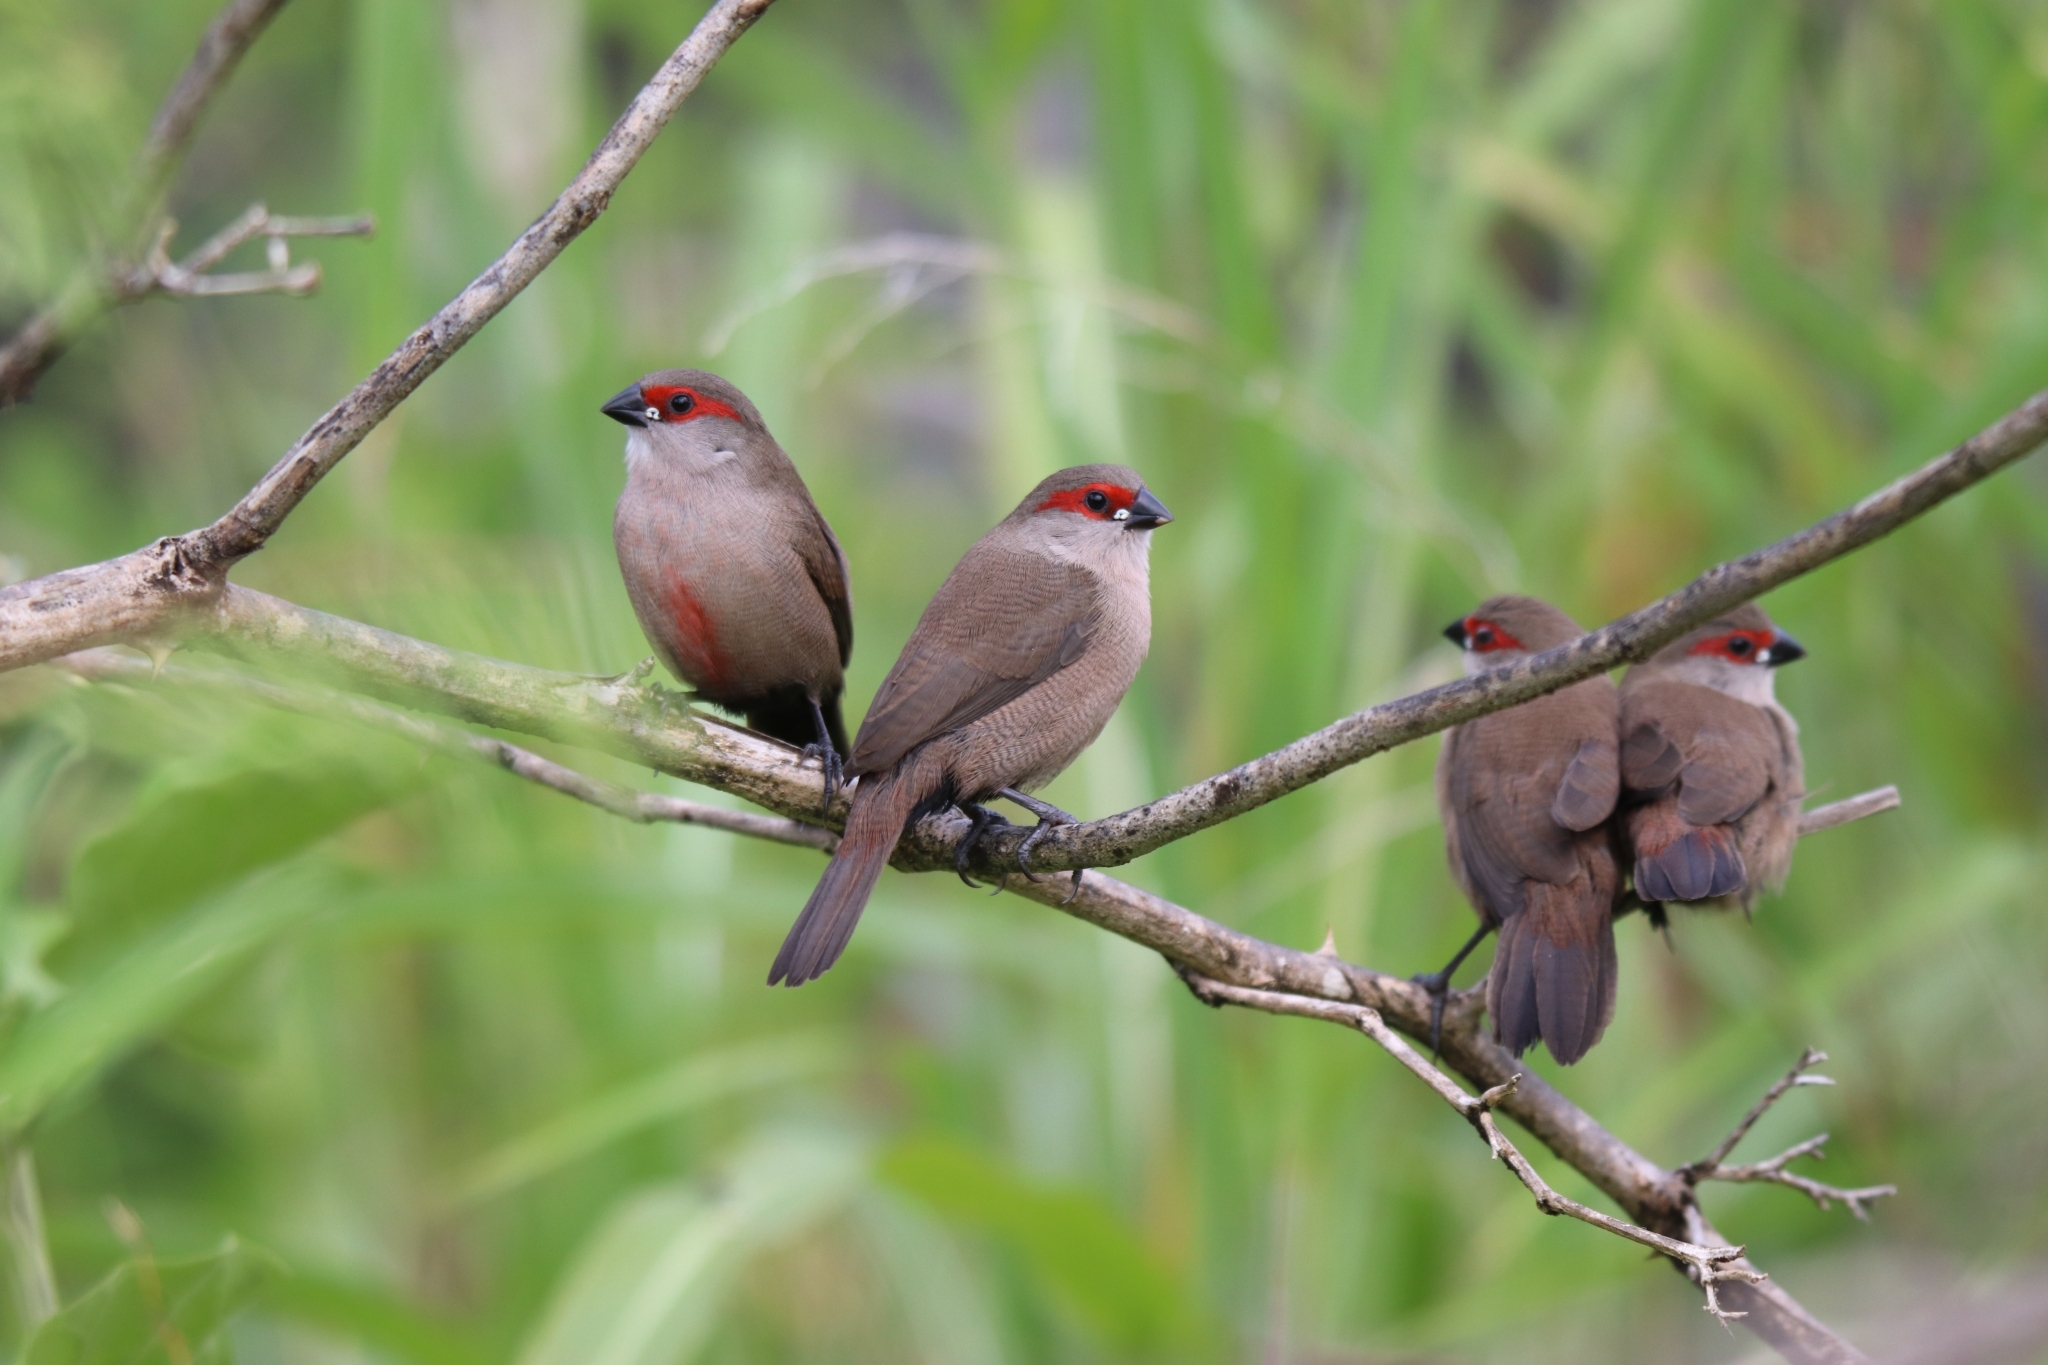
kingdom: Animalia
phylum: Chordata
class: Aves
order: Passeriformes
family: Estrildidae
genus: Estrilda
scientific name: Estrilda astrild
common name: Common waxbill
